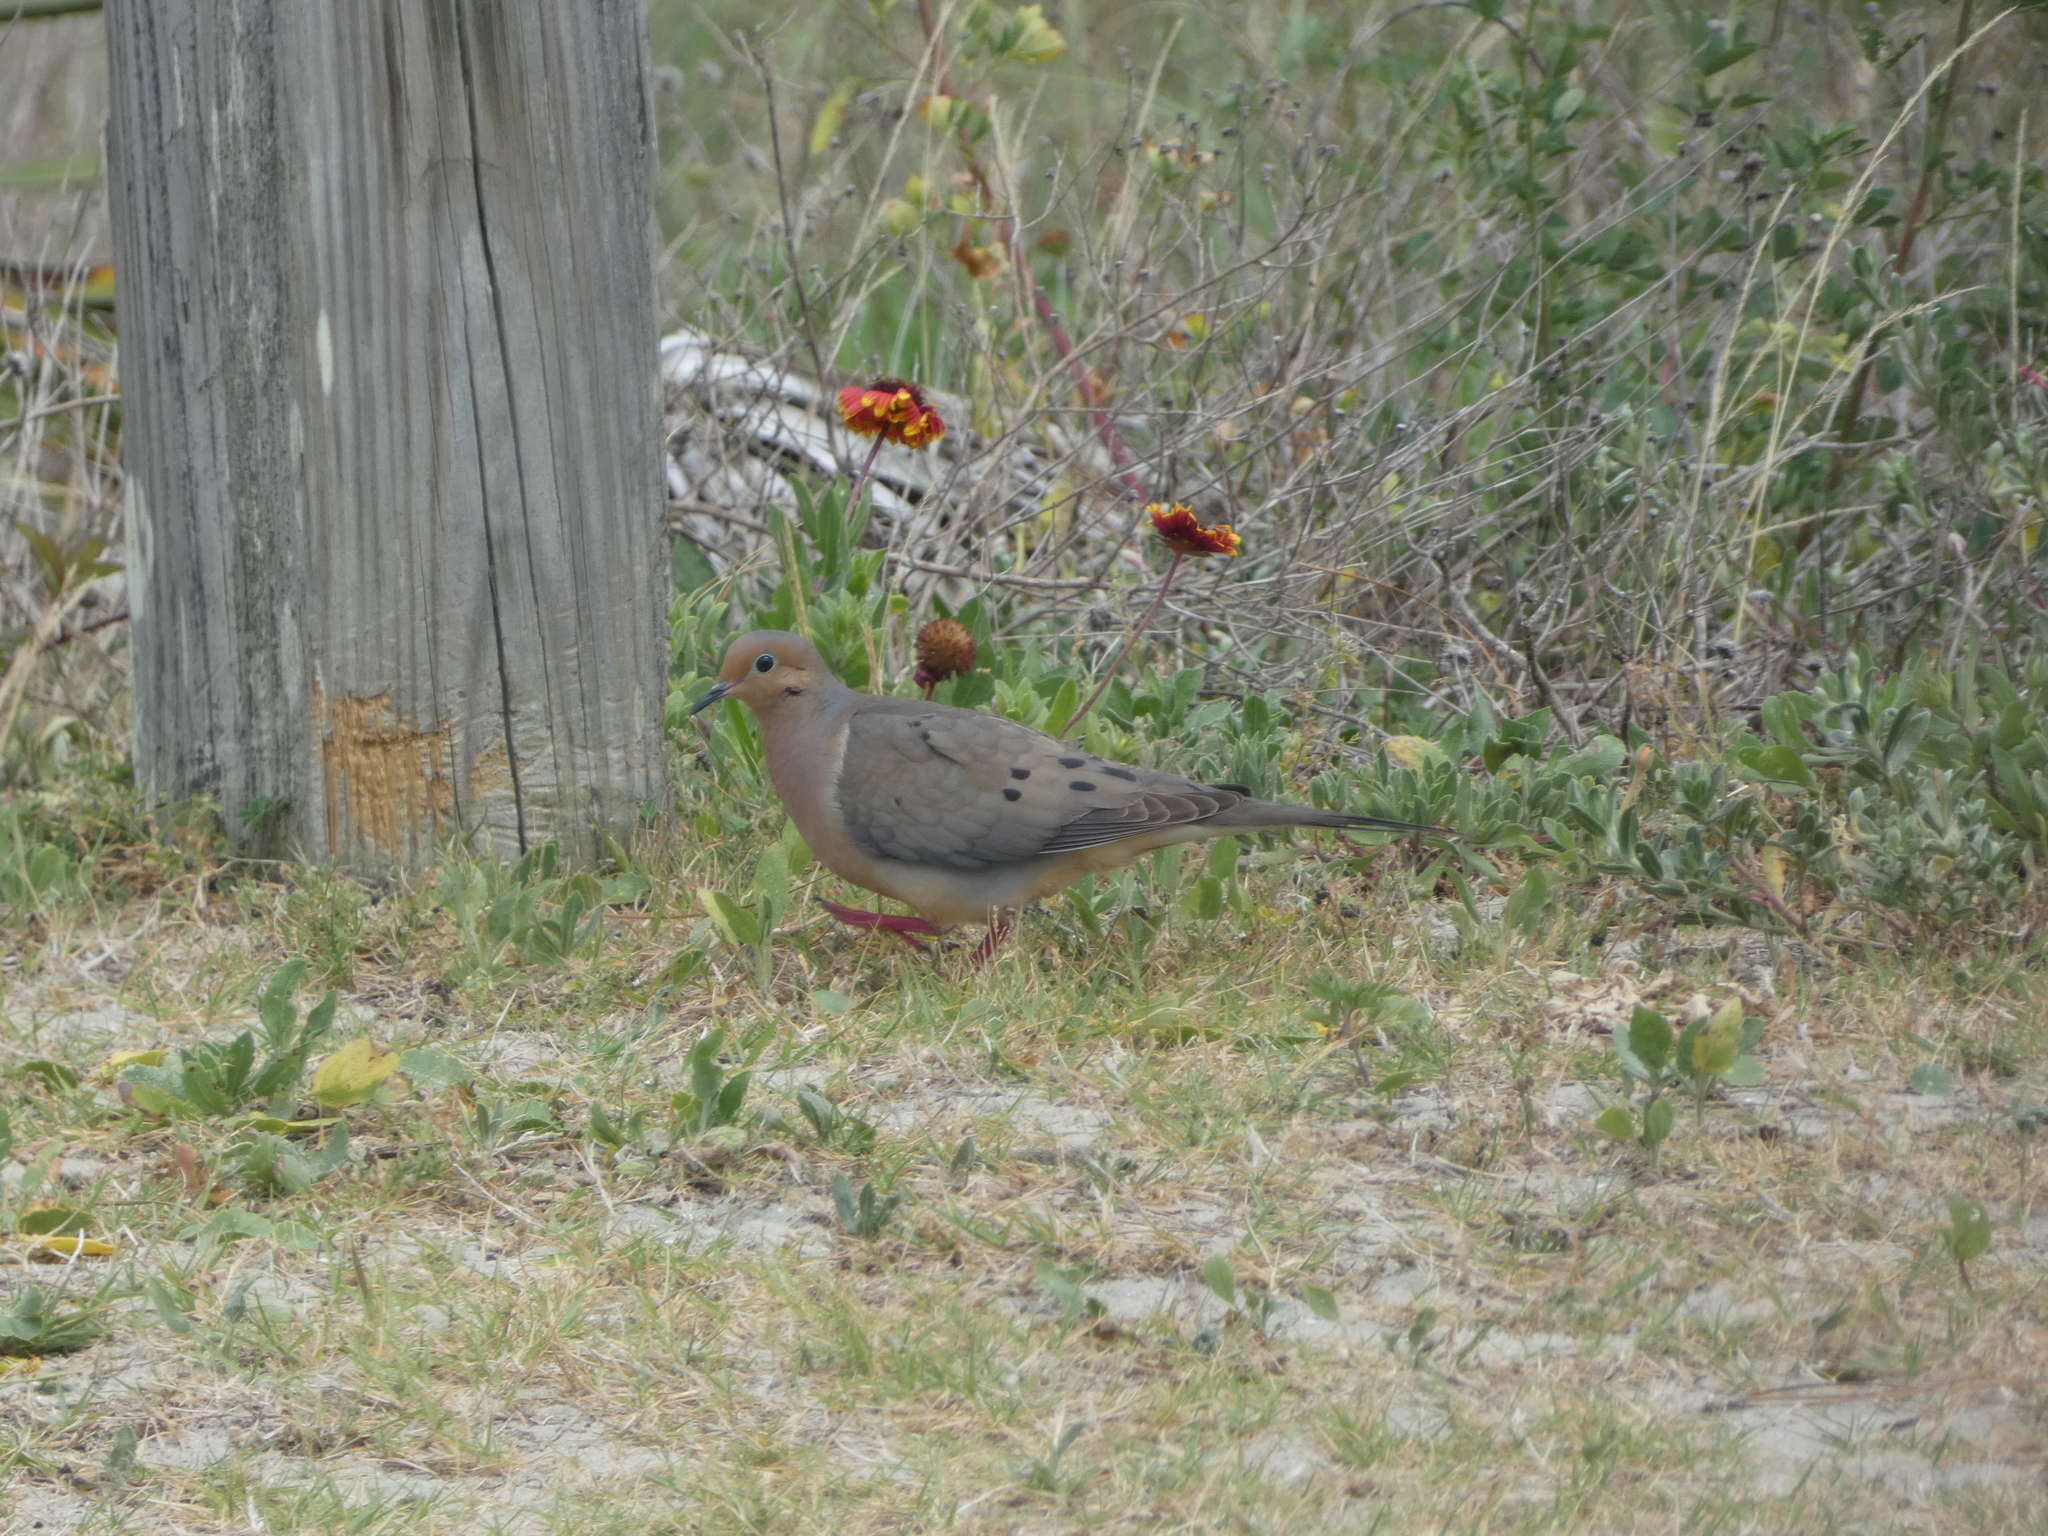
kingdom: Animalia
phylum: Chordata
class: Aves
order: Columbiformes
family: Columbidae
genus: Zenaida
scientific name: Zenaida macroura
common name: Mourning dove
